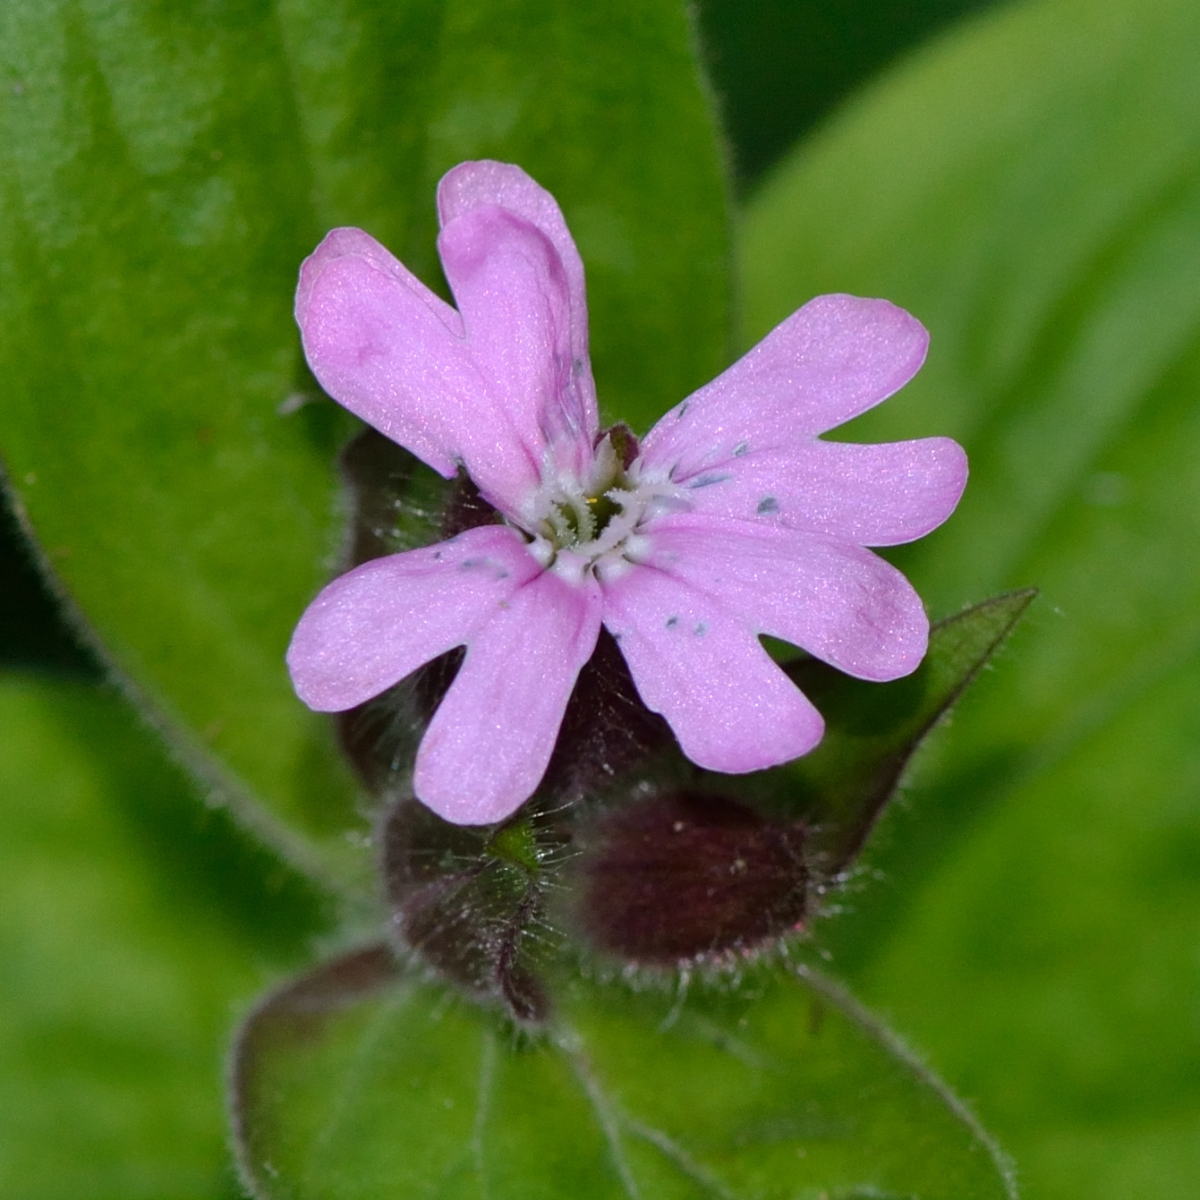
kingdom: Plantae
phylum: Tracheophyta
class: Magnoliopsida
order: Caryophyllales
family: Caryophyllaceae
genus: Silene
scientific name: Silene dioica
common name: Red campion
